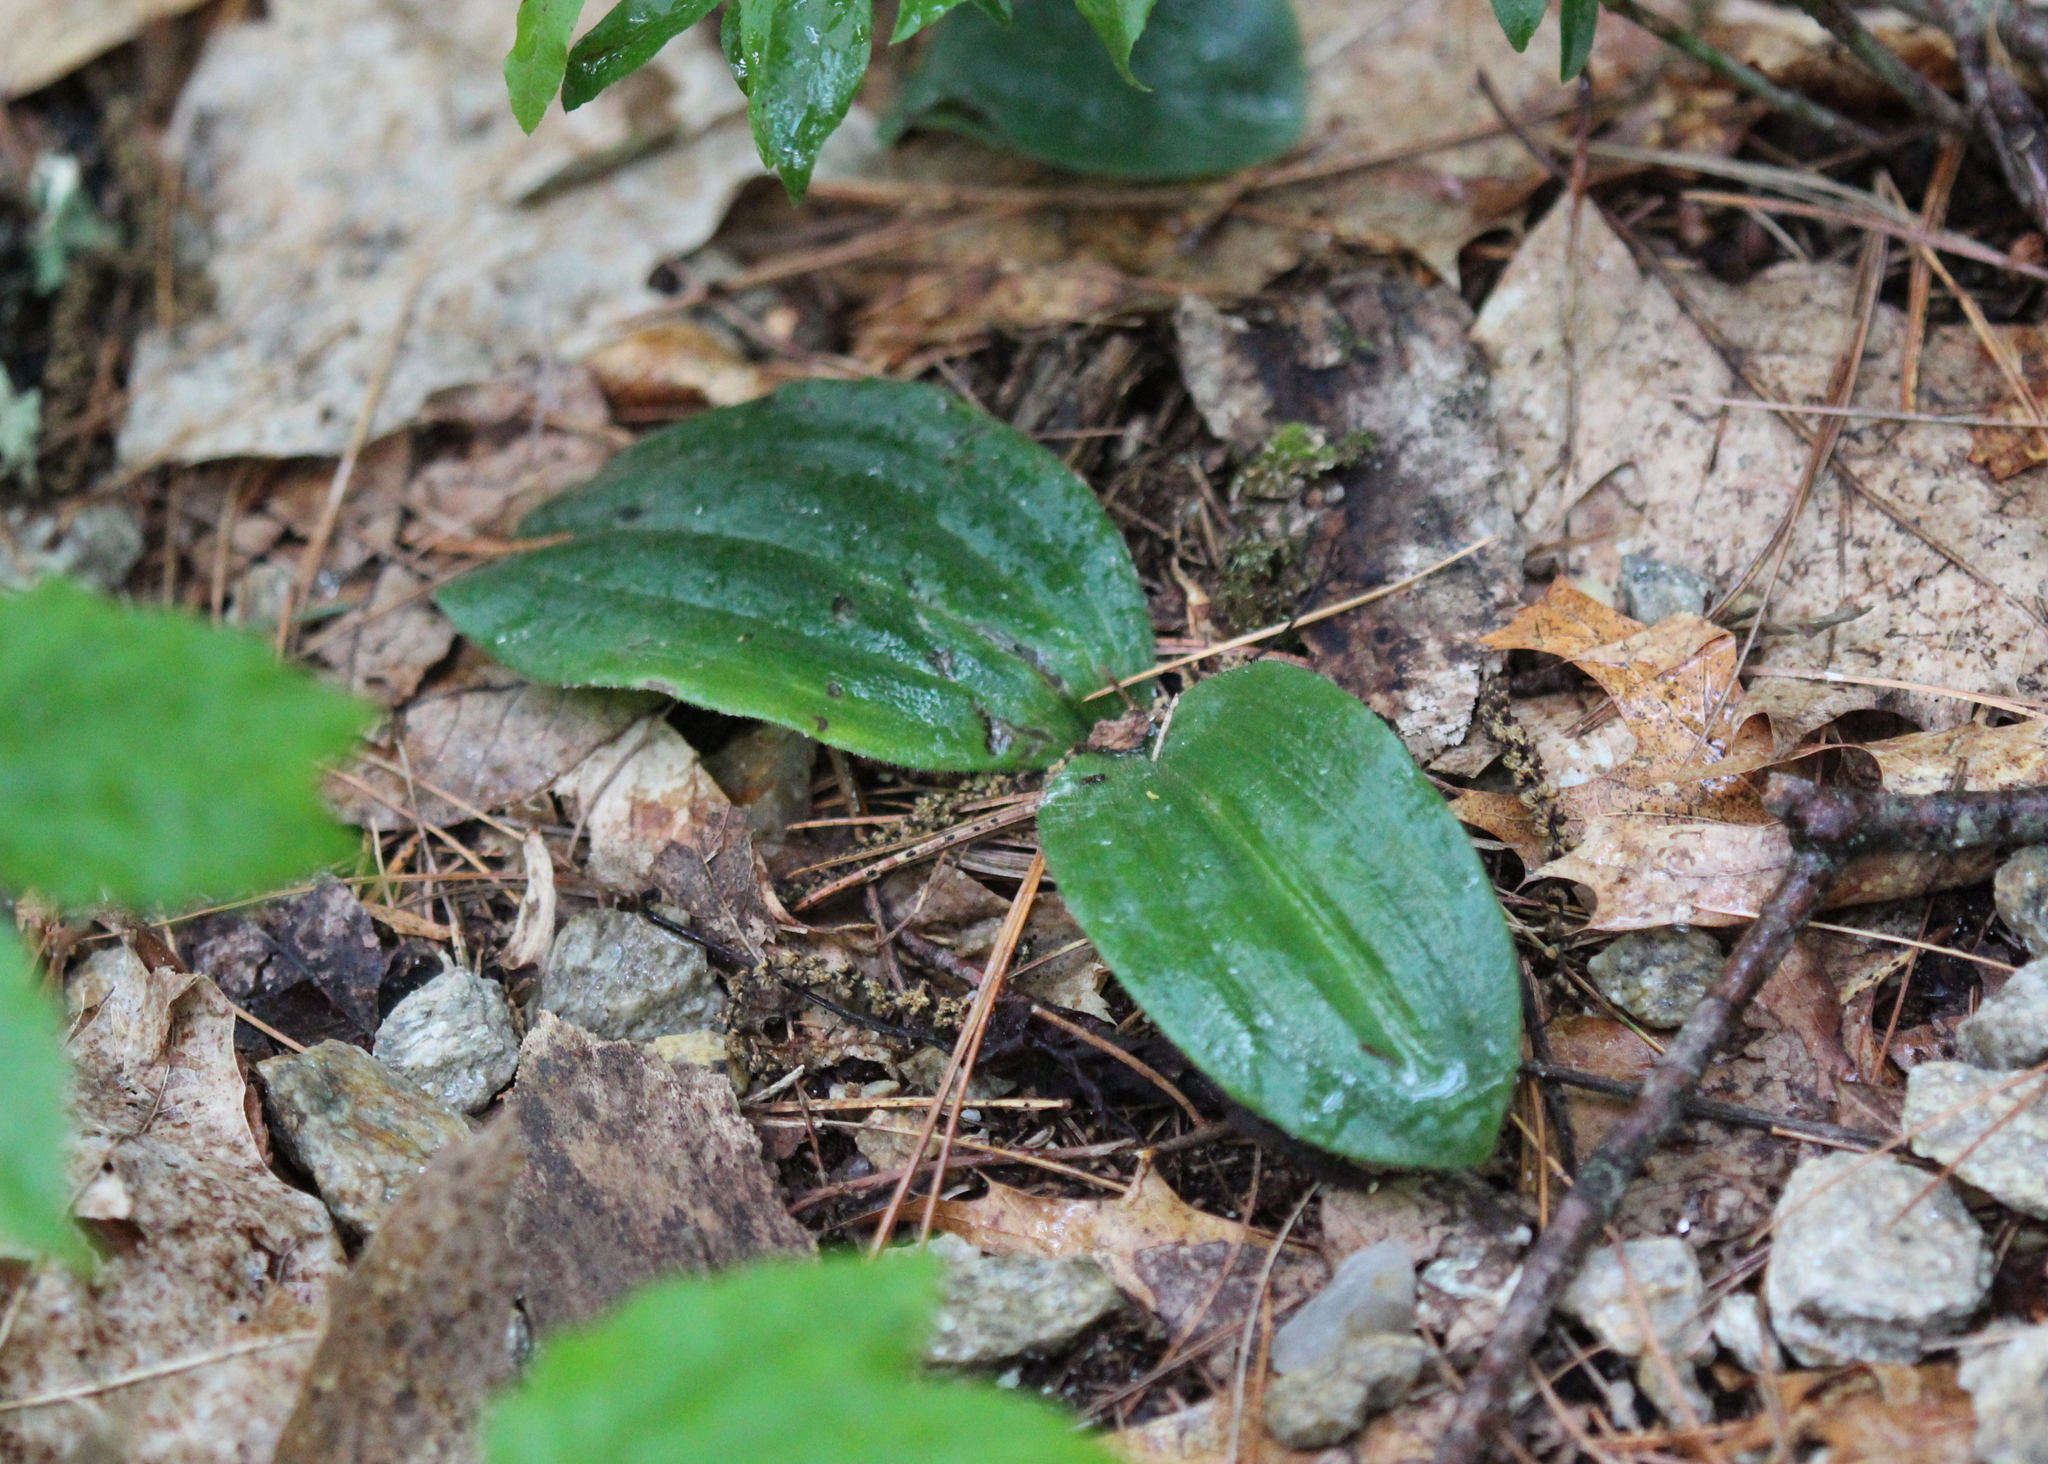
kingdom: Plantae
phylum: Tracheophyta
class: Liliopsida
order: Asparagales
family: Orchidaceae
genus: Cypripedium
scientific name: Cypripedium acaule
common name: Pink lady's-slipper
